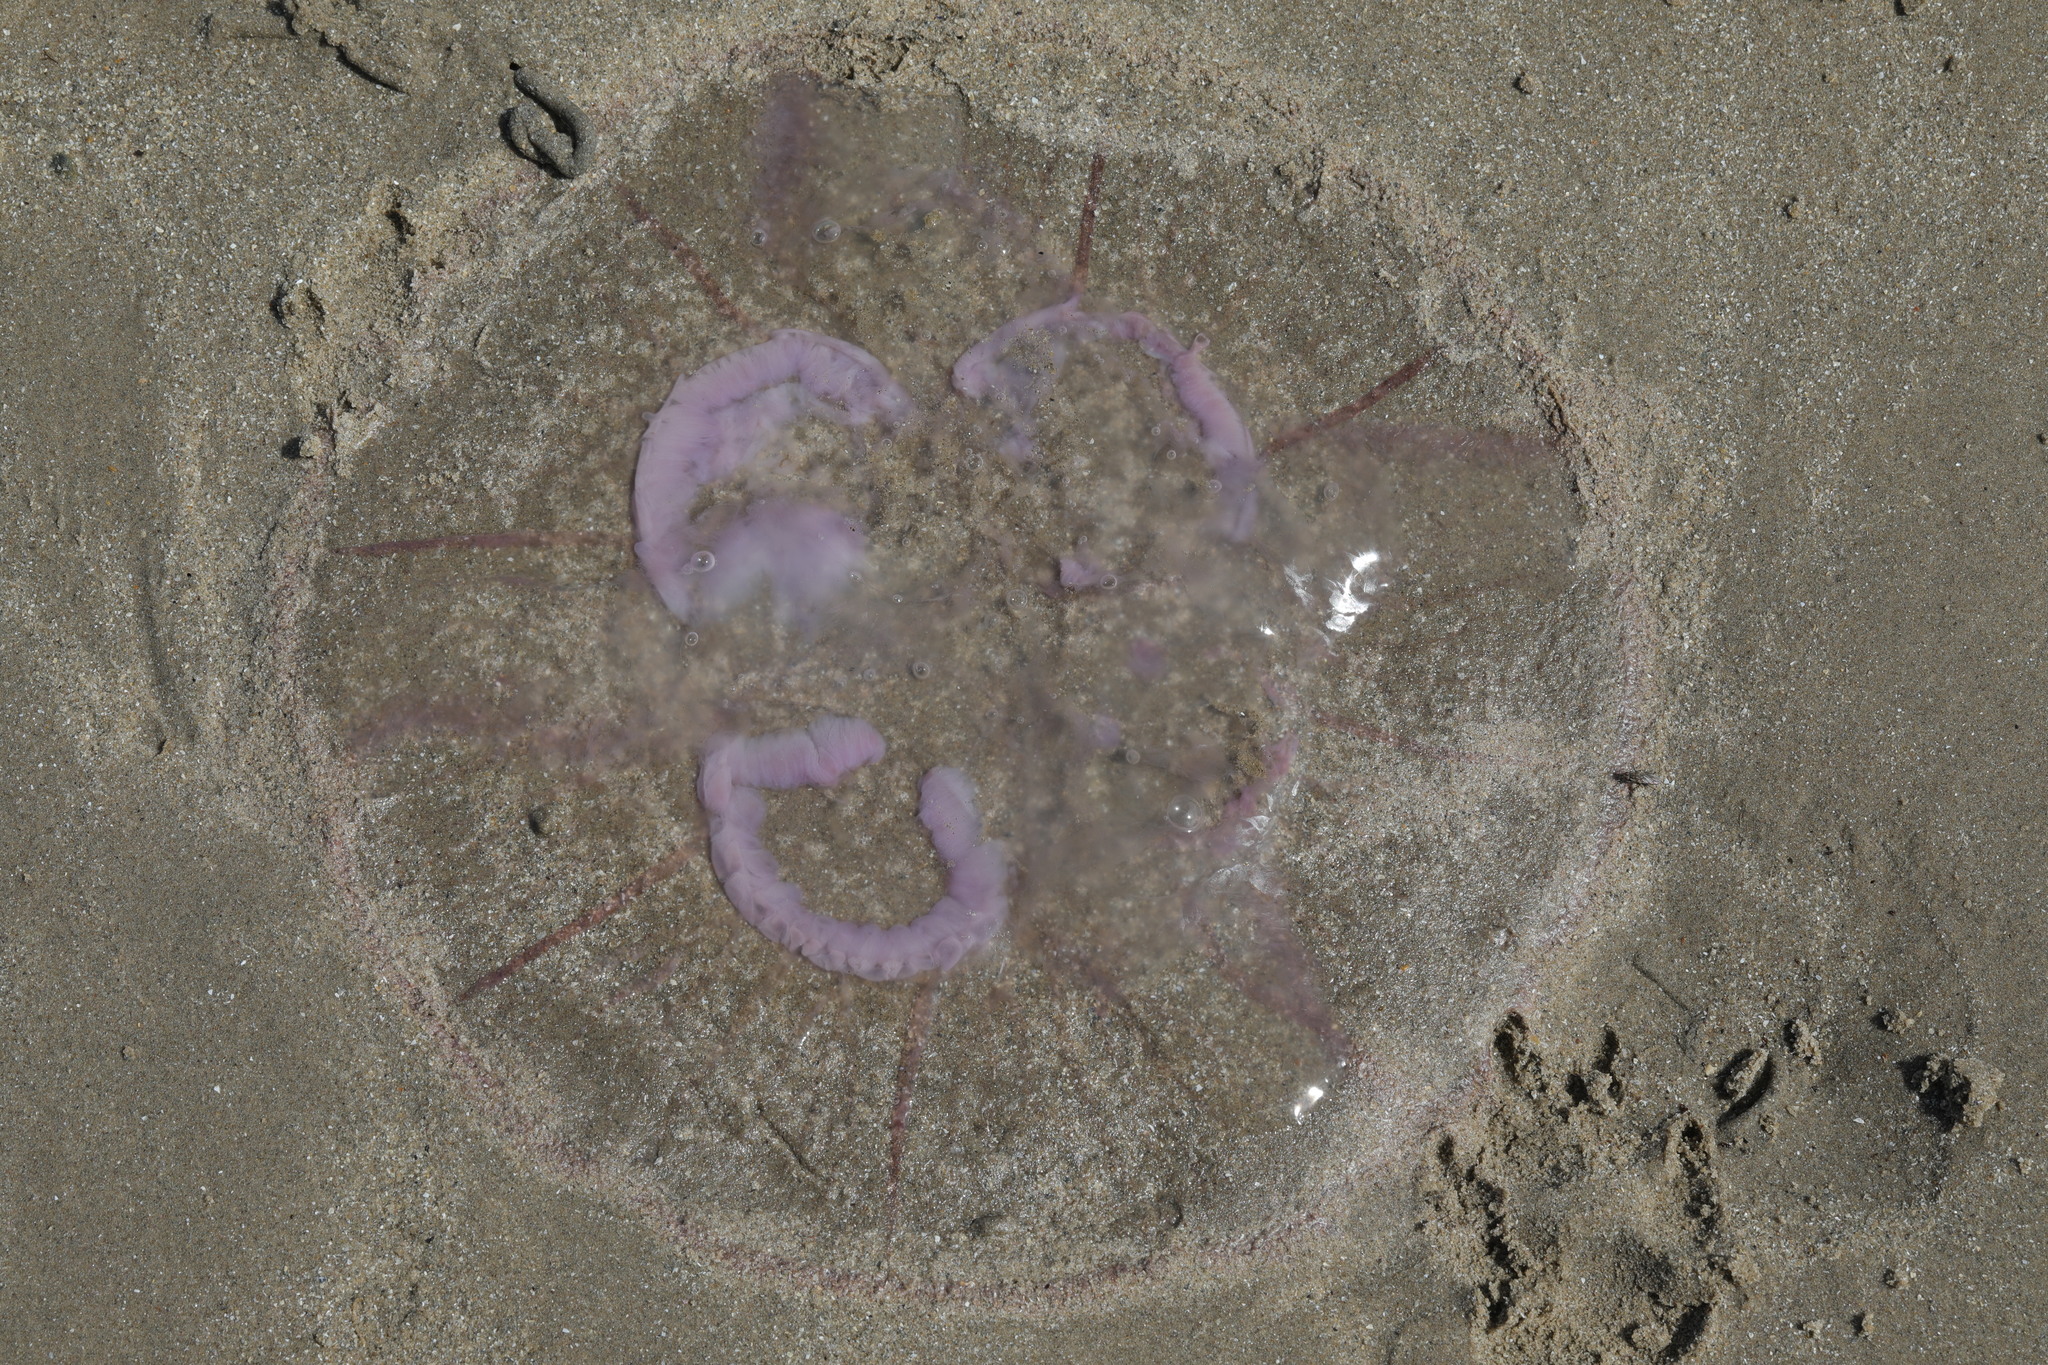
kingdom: Animalia
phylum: Cnidaria
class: Scyphozoa
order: Semaeostomeae
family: Ulmaridae
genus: Aurelia
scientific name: Aurelia aurita
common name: Moon jellyfish
